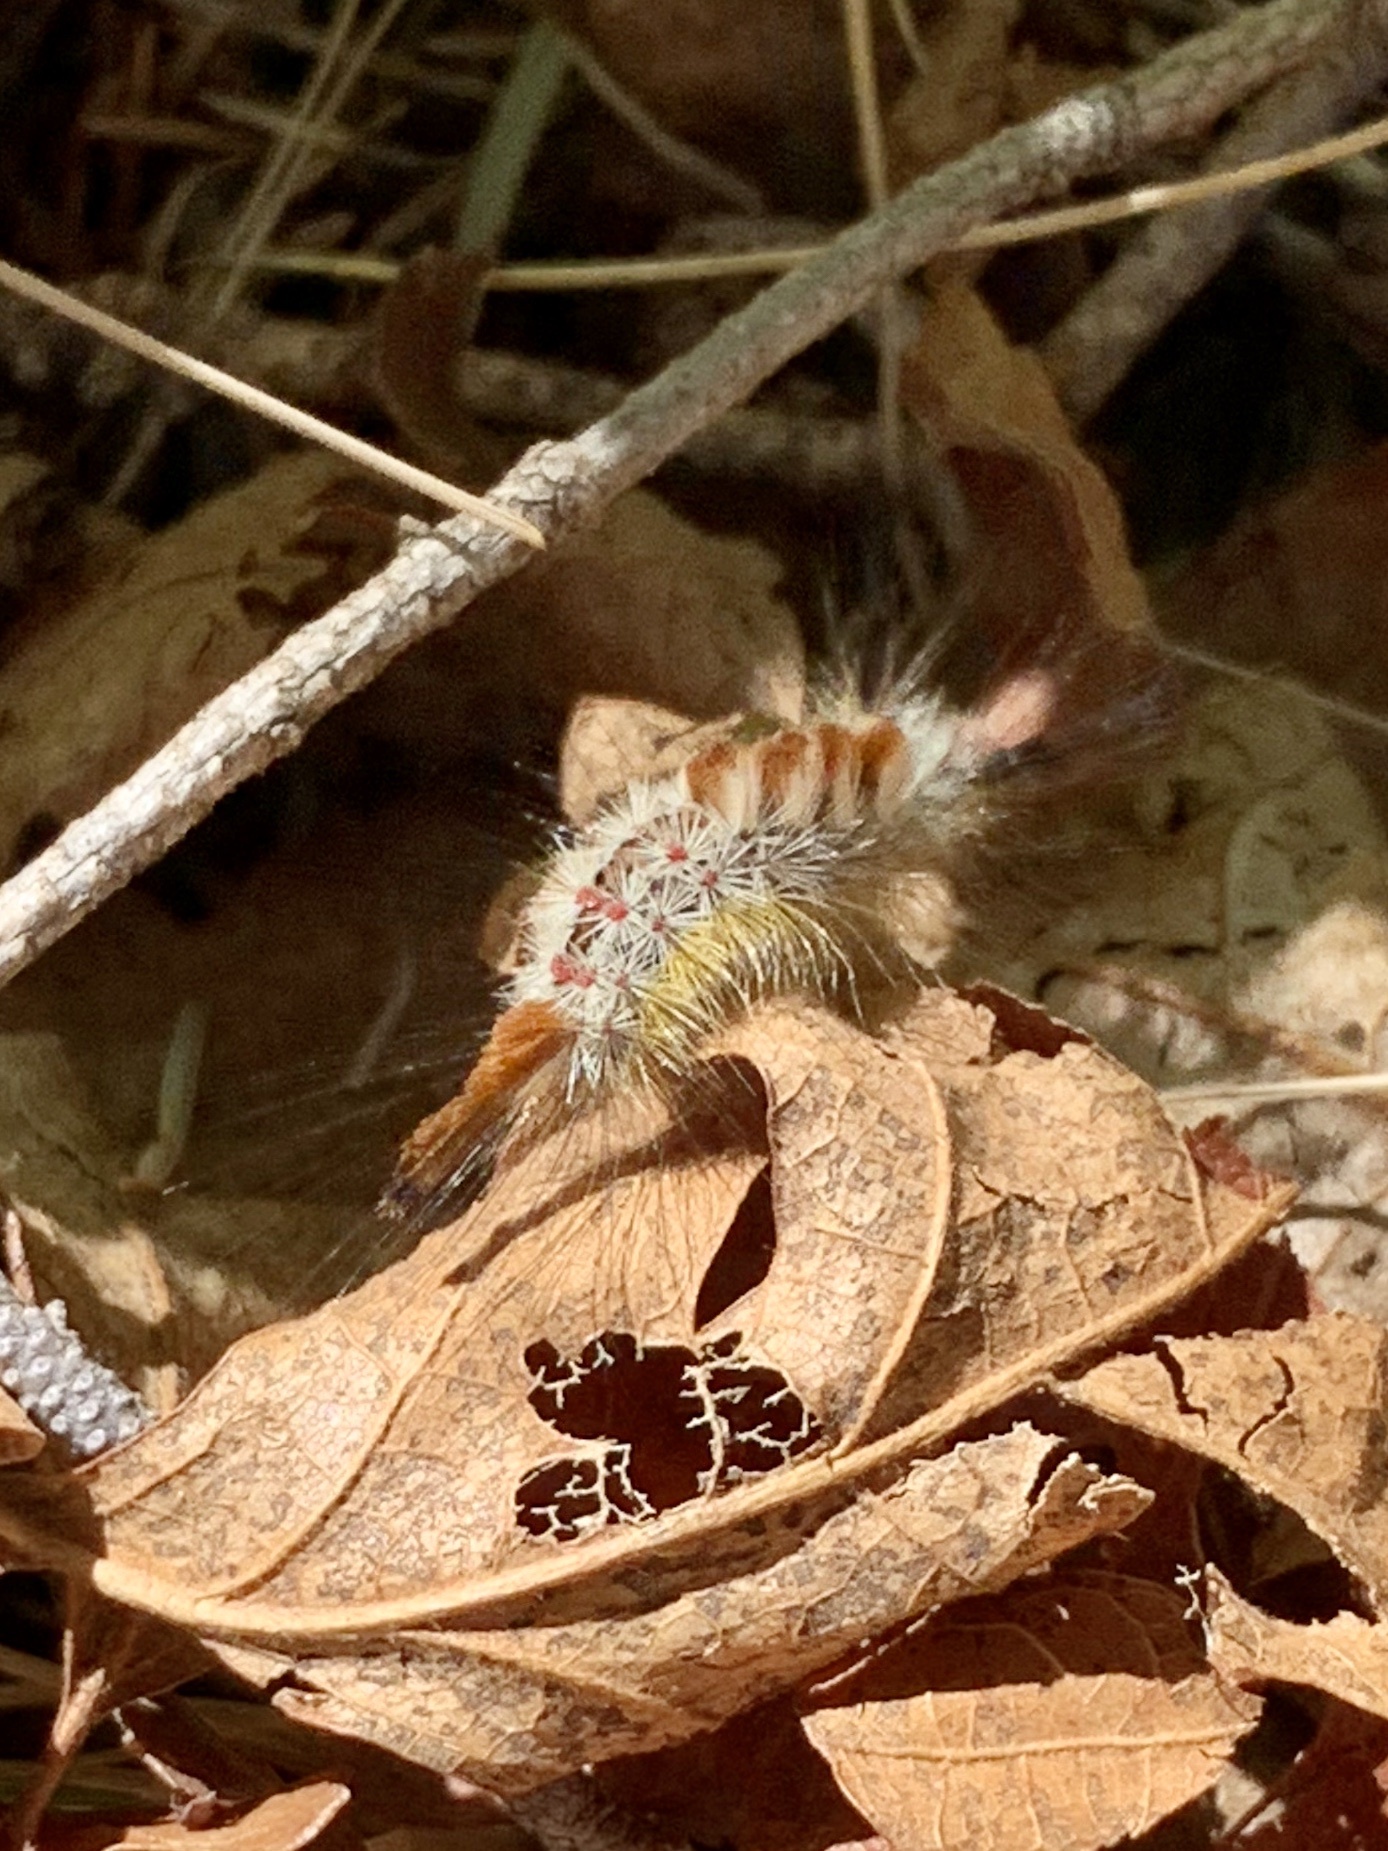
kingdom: Animalia
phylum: Arthropoda
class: Insecta
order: Lepidoptera
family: Erebidae
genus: Orgyia
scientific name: Orgyia pseudotsugata
